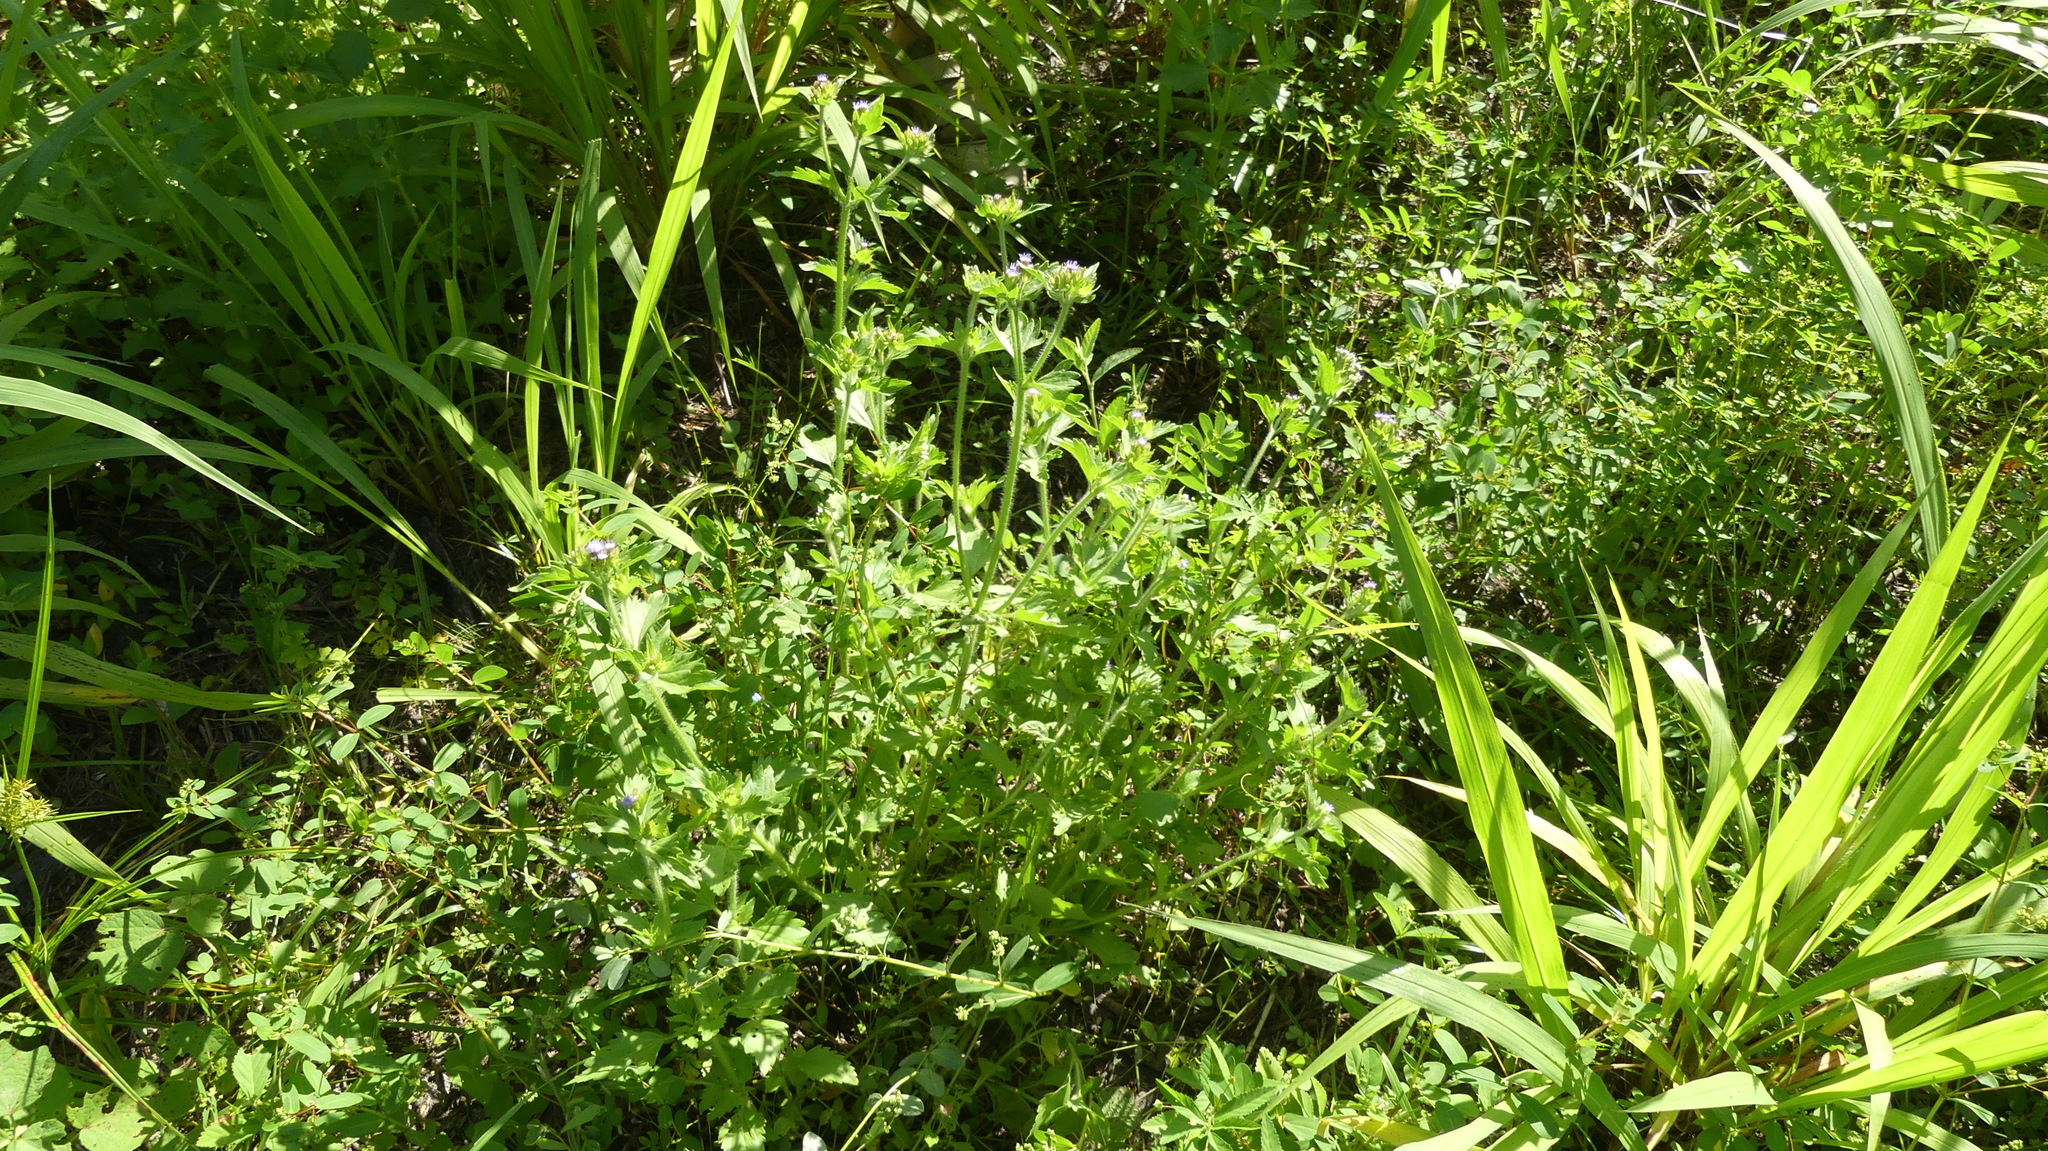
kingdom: Plantae
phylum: Tracheophyta
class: Magnoliopsida
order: Asterales
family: Asteraceae
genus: Praxelis
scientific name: Praxelis clematidea
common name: Praxelis
